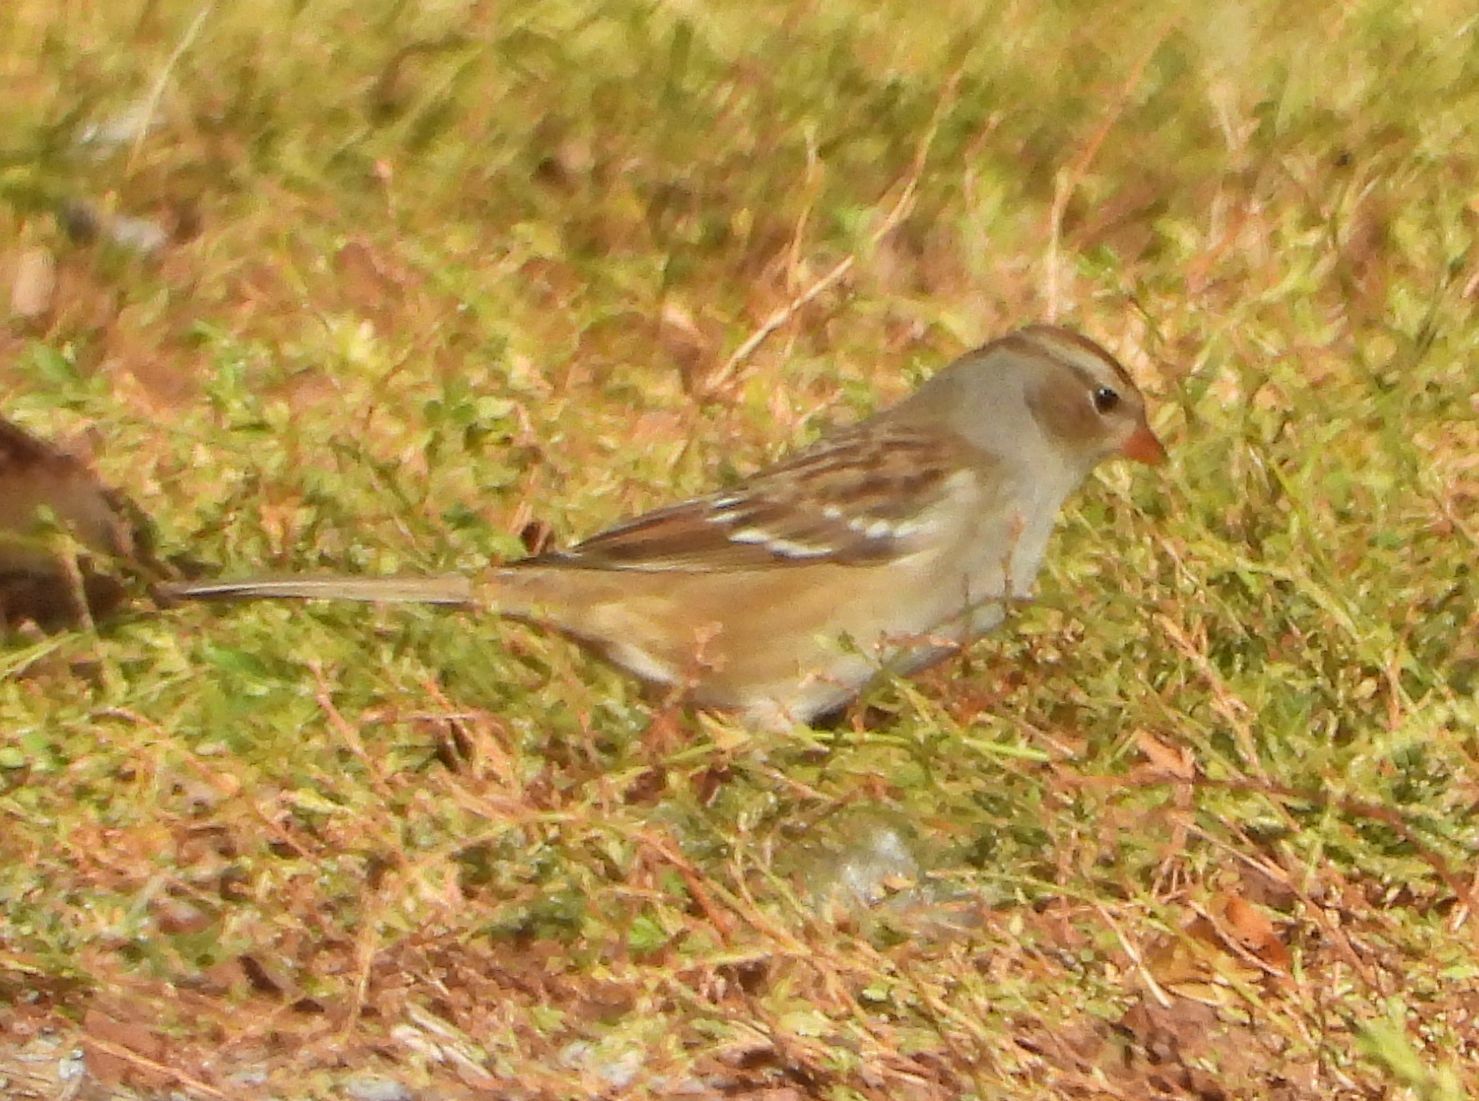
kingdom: Animalia
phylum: Chordata
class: Aves
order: Passeriformes
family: Passerellidae
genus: Zonotrichia
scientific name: Zonotrichia leucophrys
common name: White-crowned sparrow
